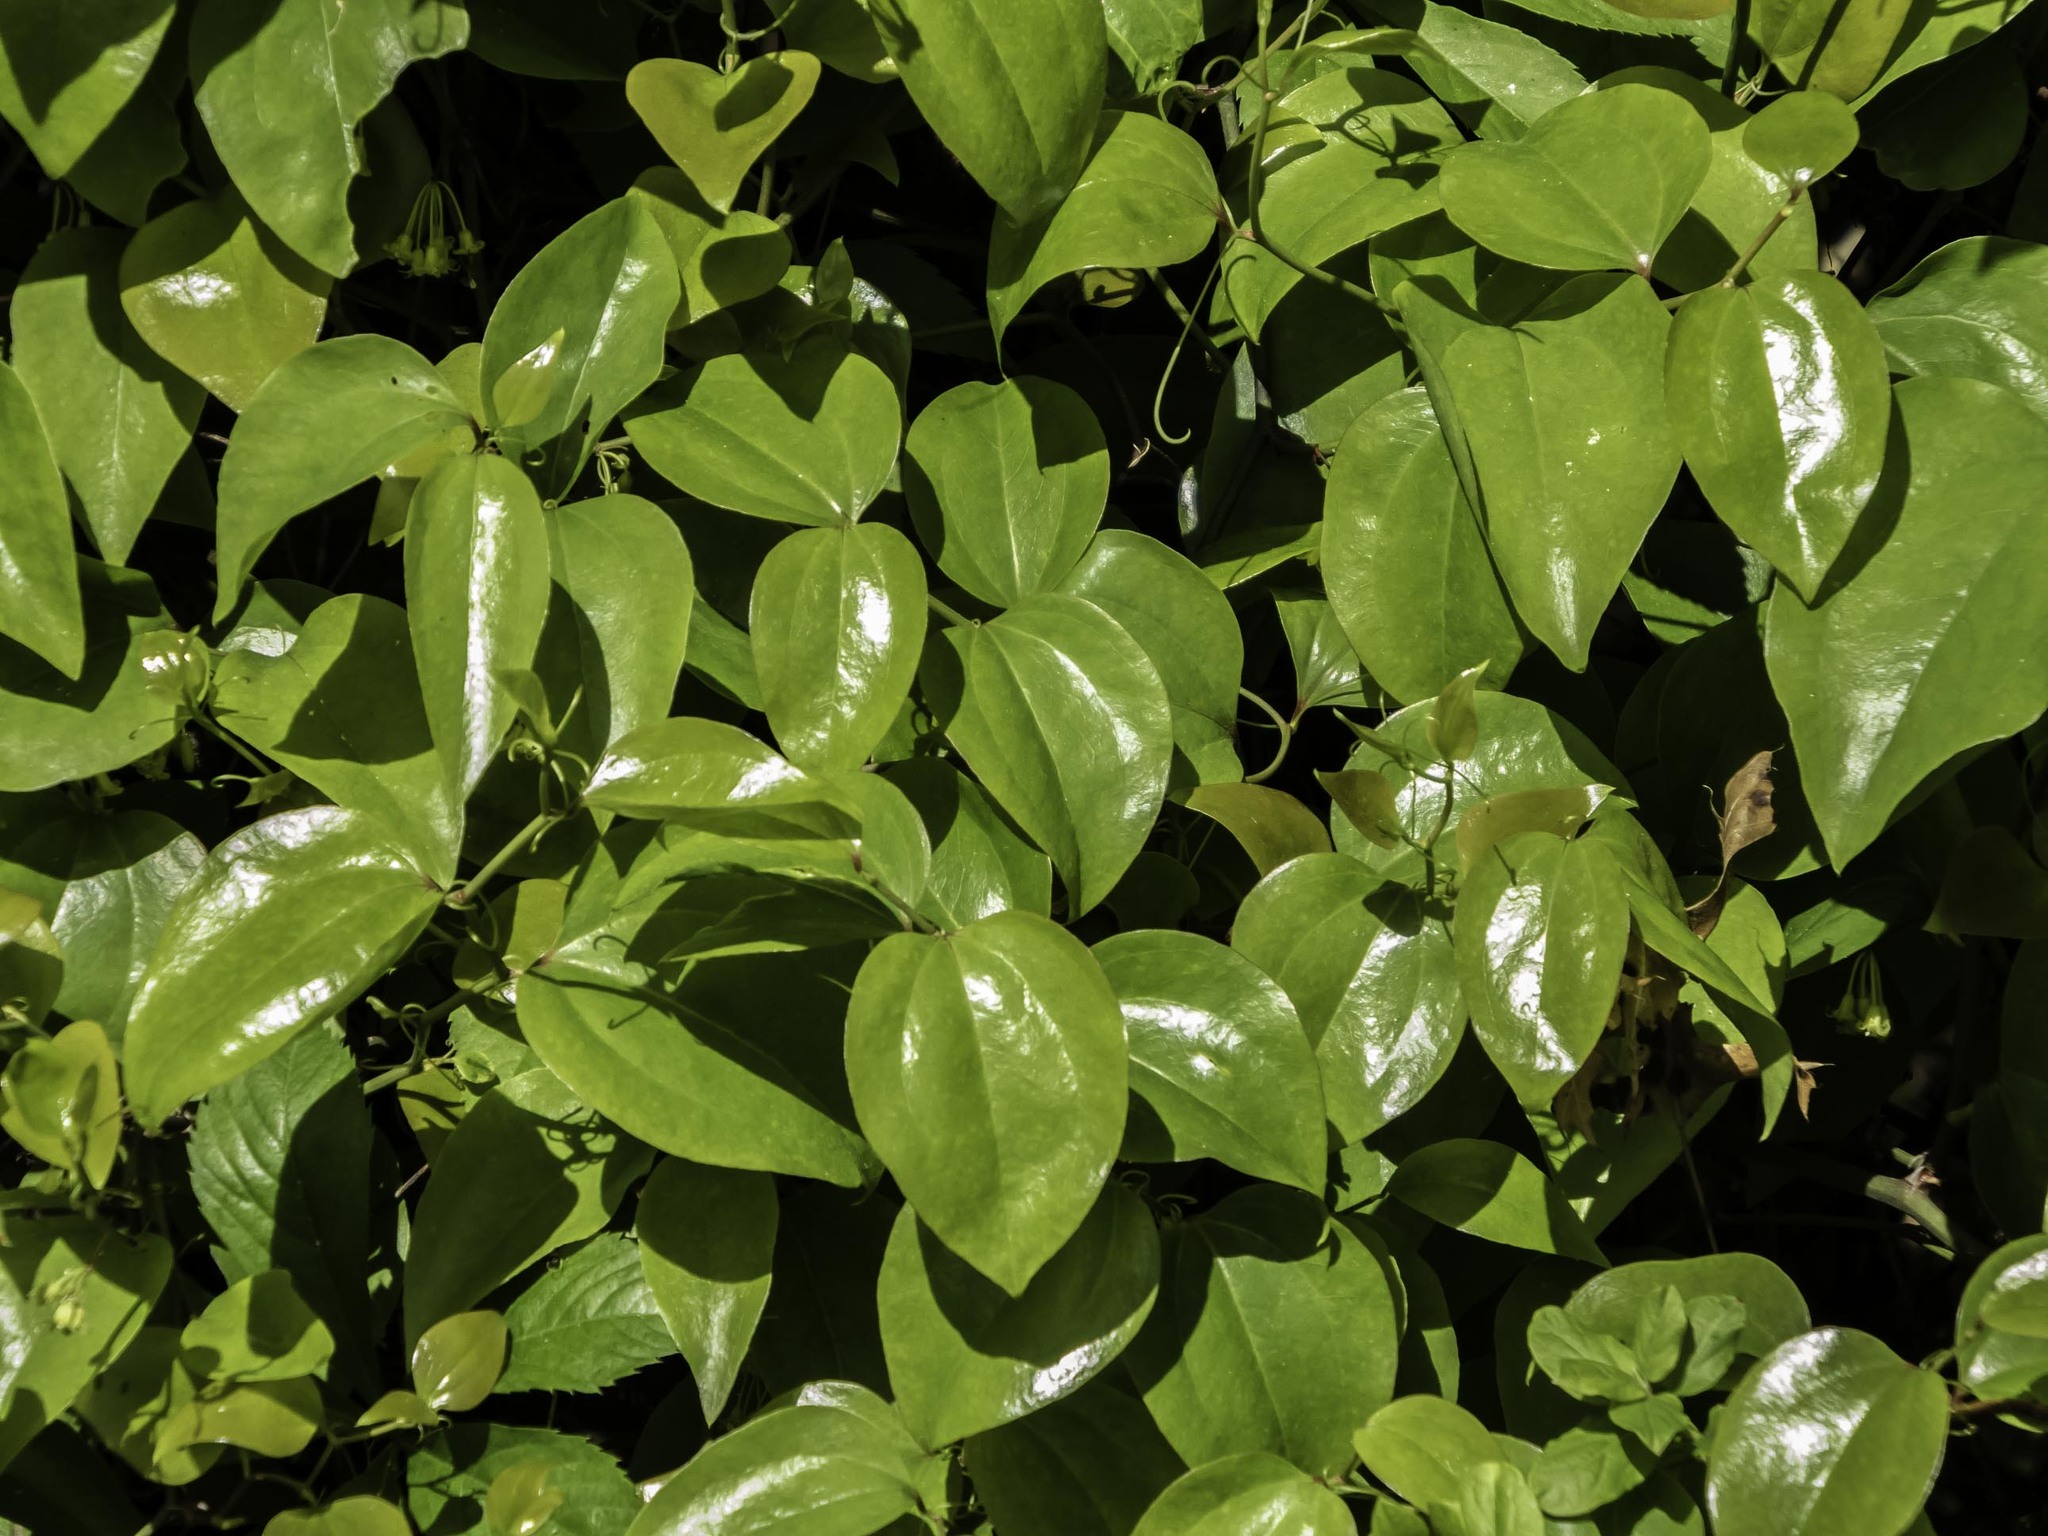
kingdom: Plantae
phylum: Tracheophyta
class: Liliopsida
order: Liliales
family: Smilacaceae
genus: Smilax
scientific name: Smilax rotundifolia
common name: Bullbriar
